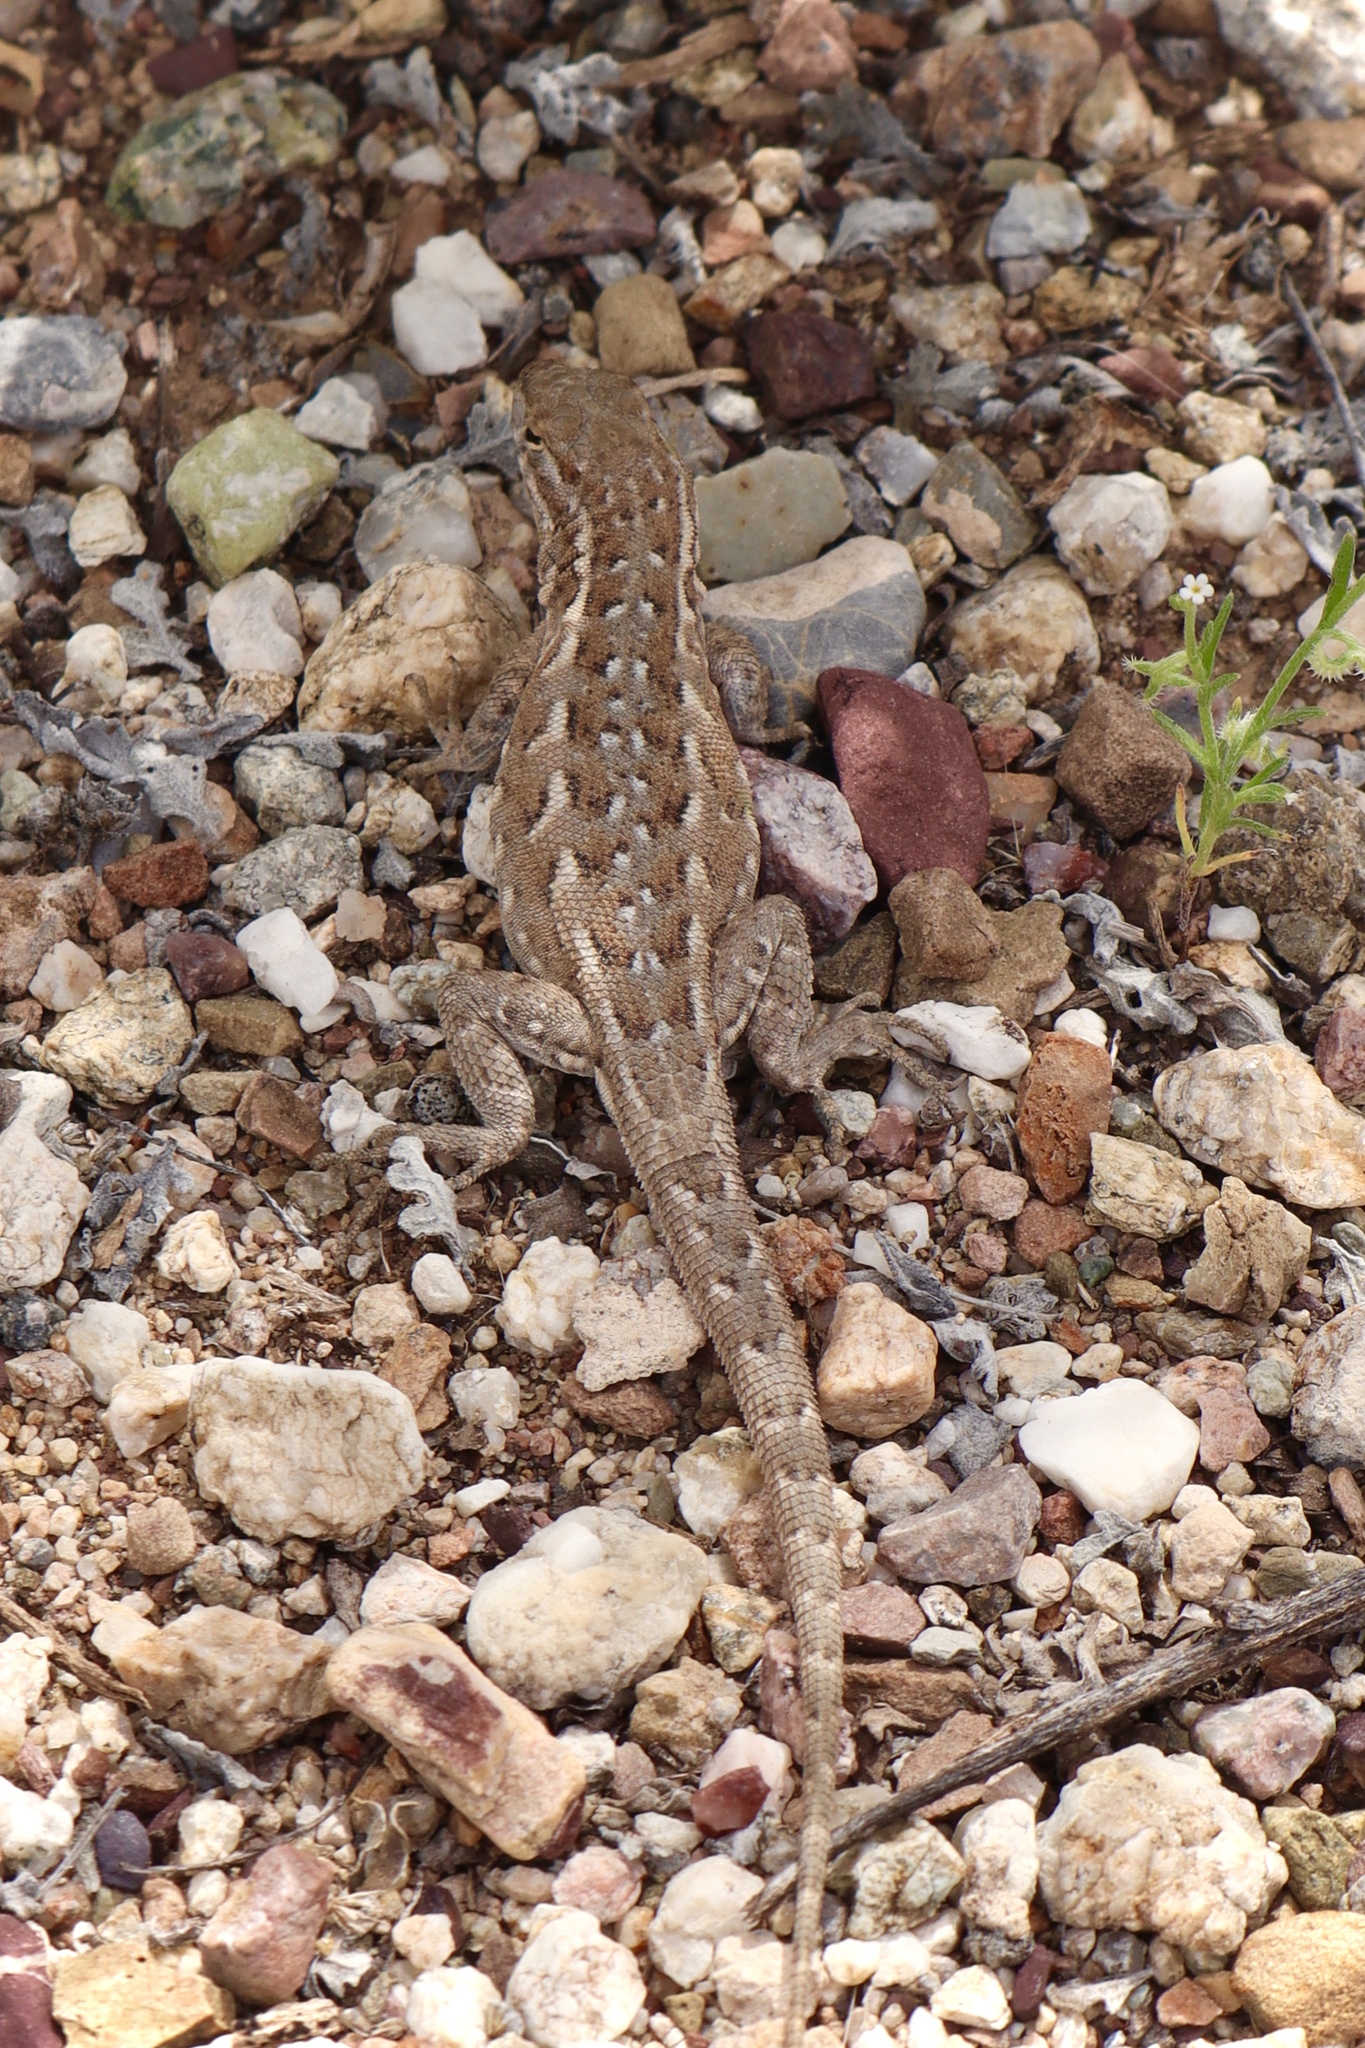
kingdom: Animalia
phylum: Chordata
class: Squamata
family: Phrynosomatidae
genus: Uta
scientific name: Uta stansburiana
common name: Side-blotched lizard
